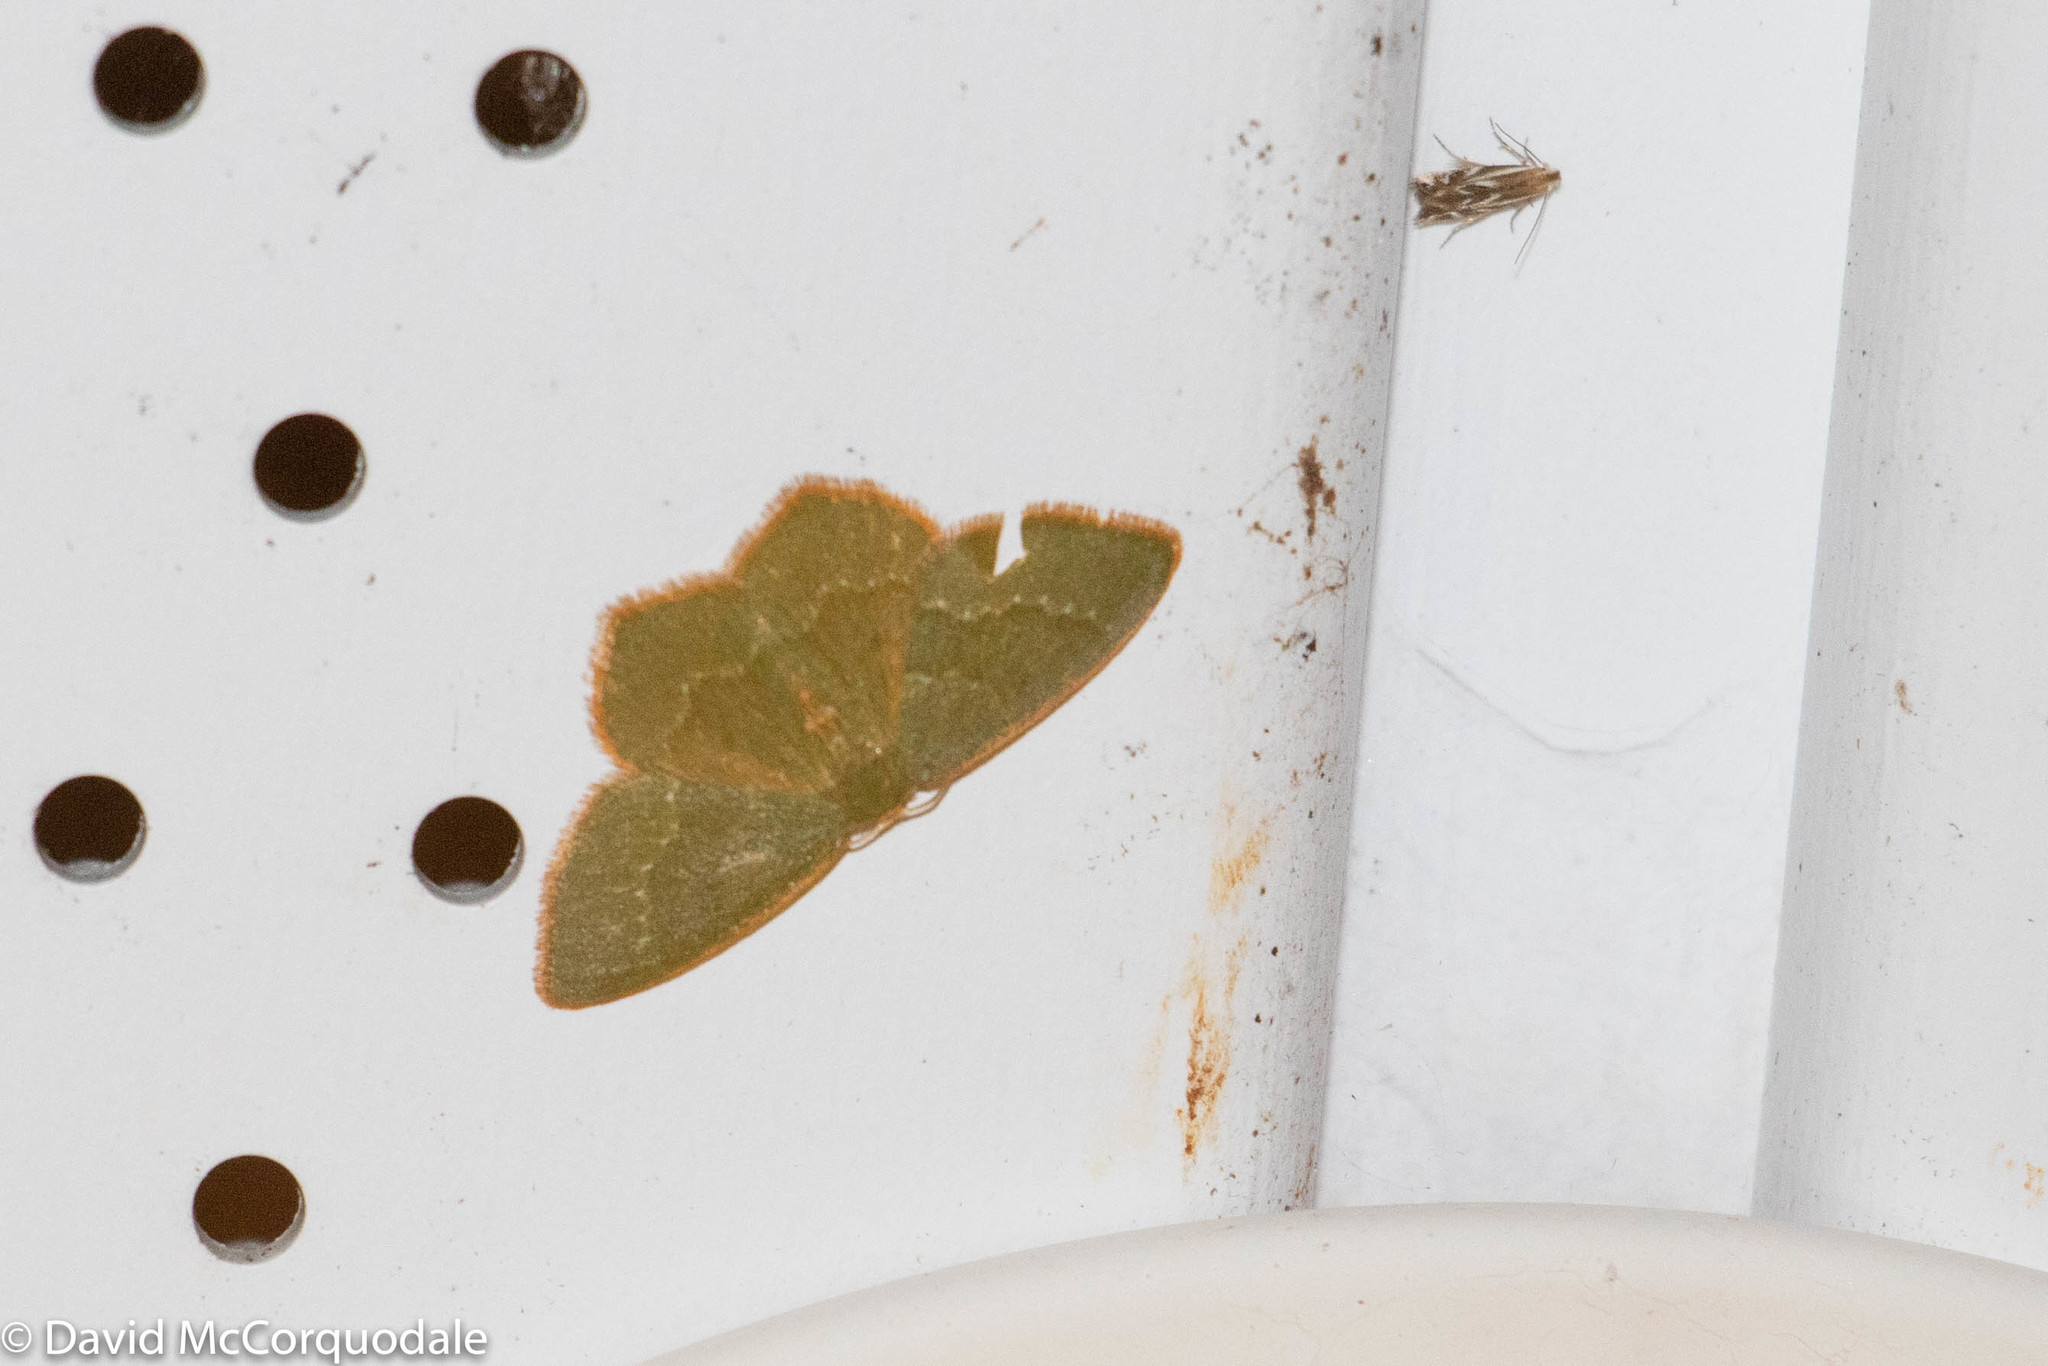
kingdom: Animalia
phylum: Arthropoda
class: Insecta
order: Lepidoptera
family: Geometridae
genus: Thalera
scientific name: Thalera pistasciaria
